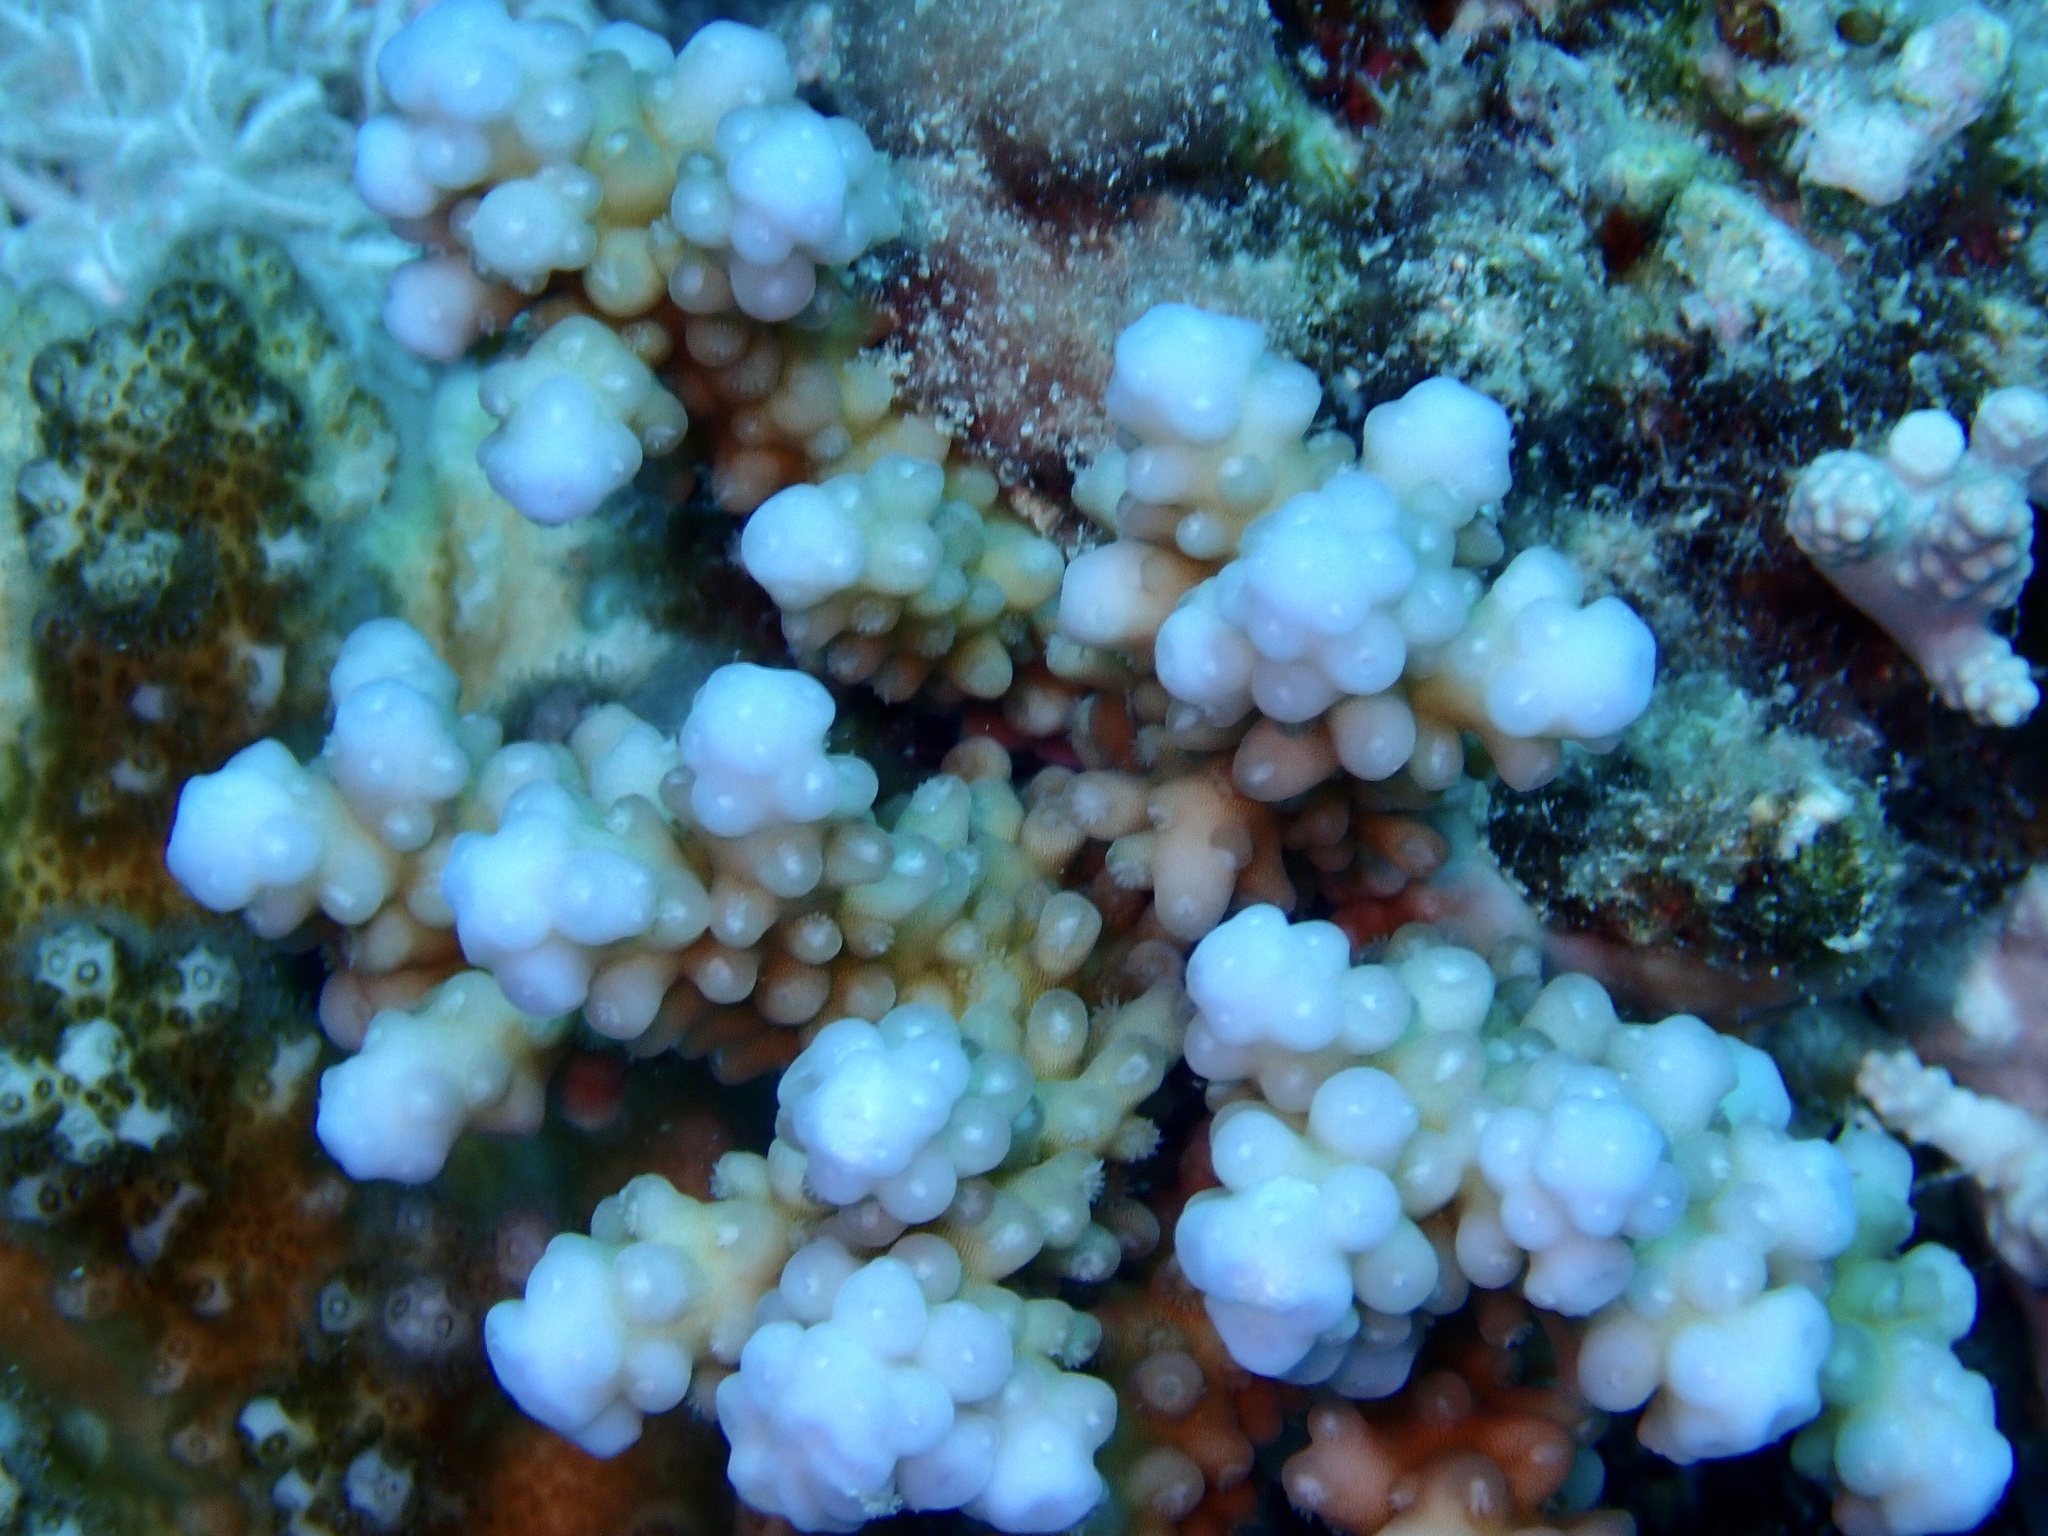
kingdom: Animalia
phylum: Cnidaria
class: Anthozoa
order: Scleractinia
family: Acroporidae
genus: Acropora
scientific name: Acropora hemprichii
